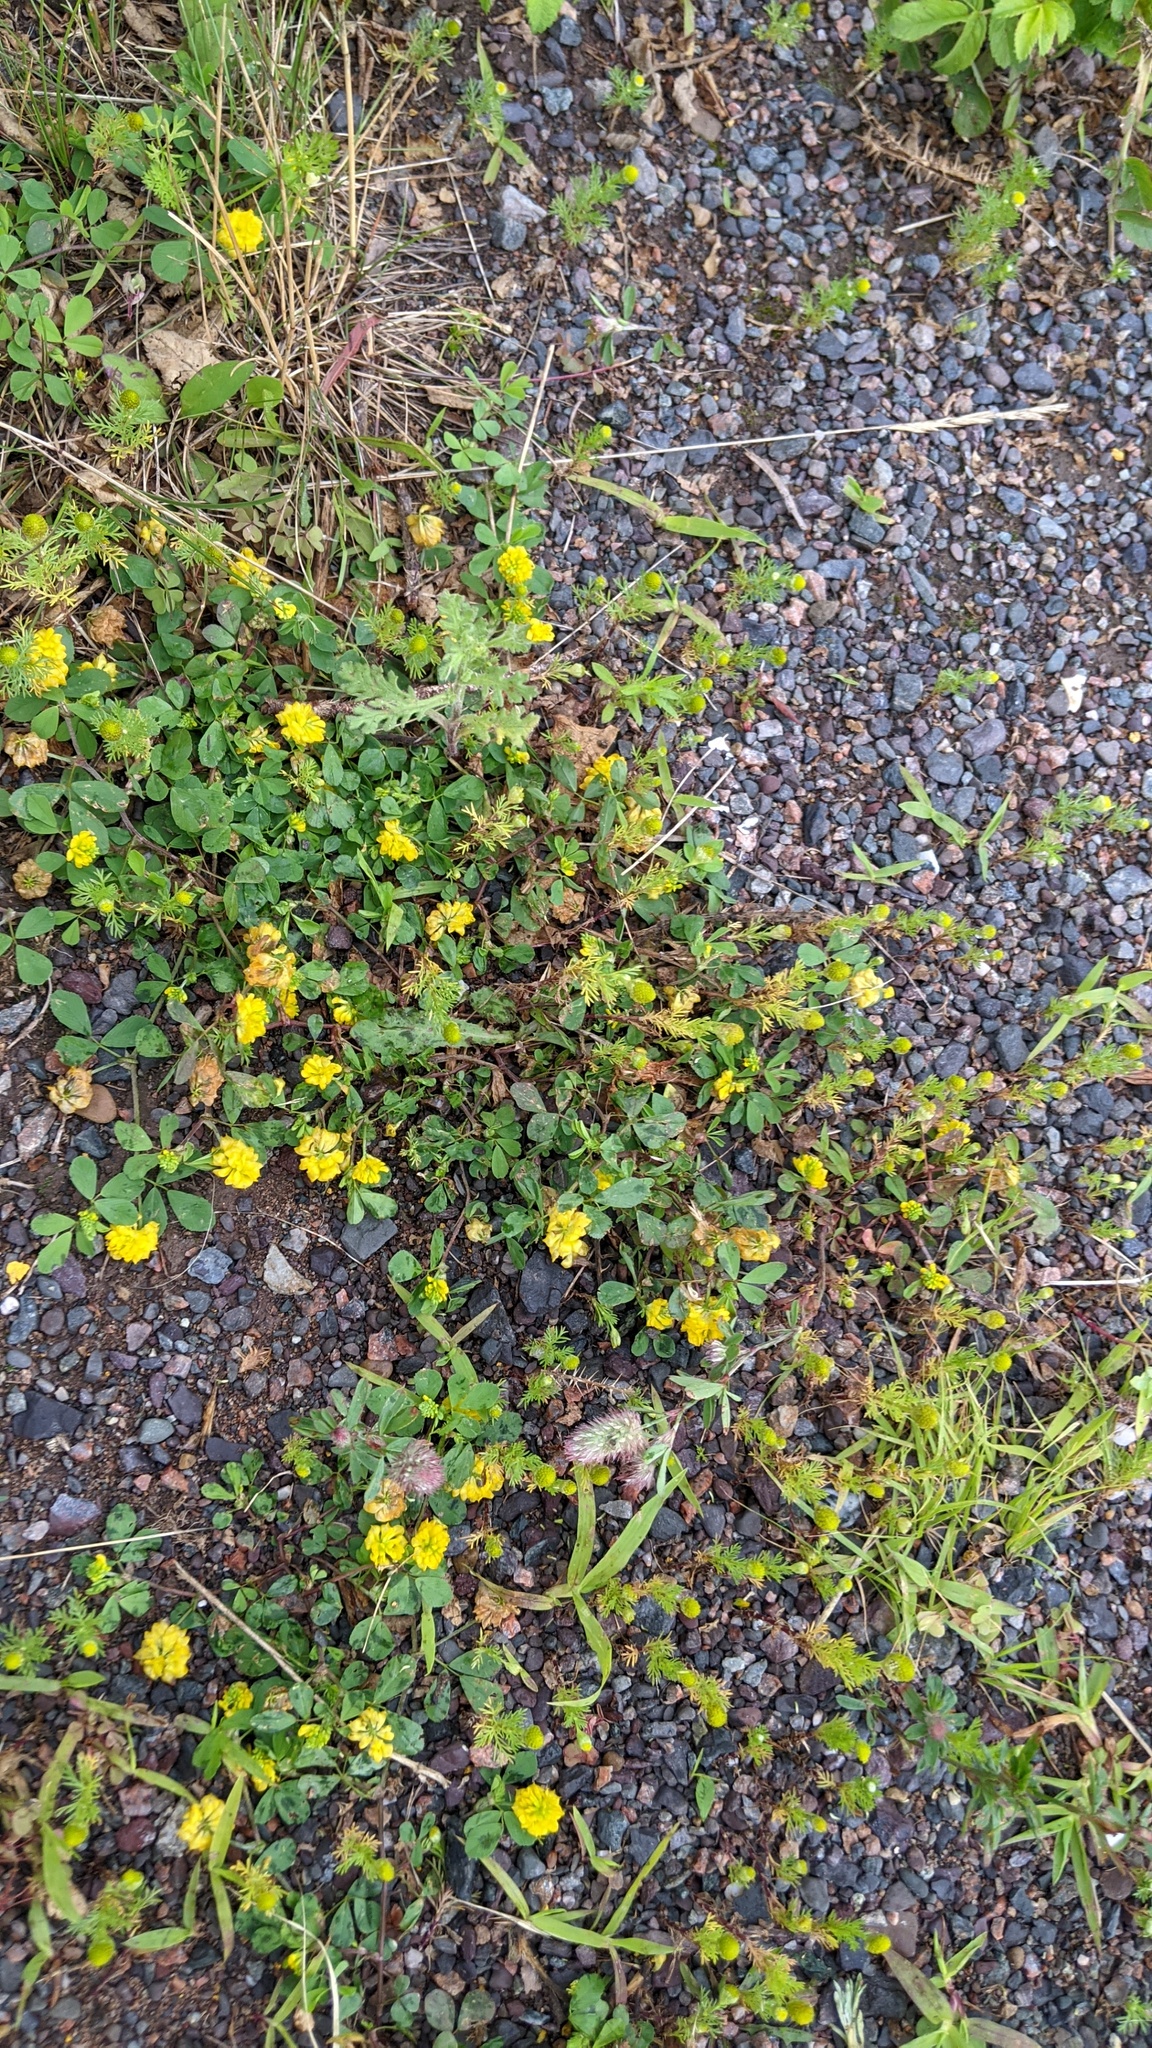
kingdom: Plantae
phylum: Tracheophyta
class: Magnoliopsida
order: Fabales
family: Fabaceae
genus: Trifolium
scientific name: Trifolium campestre
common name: Field clover
